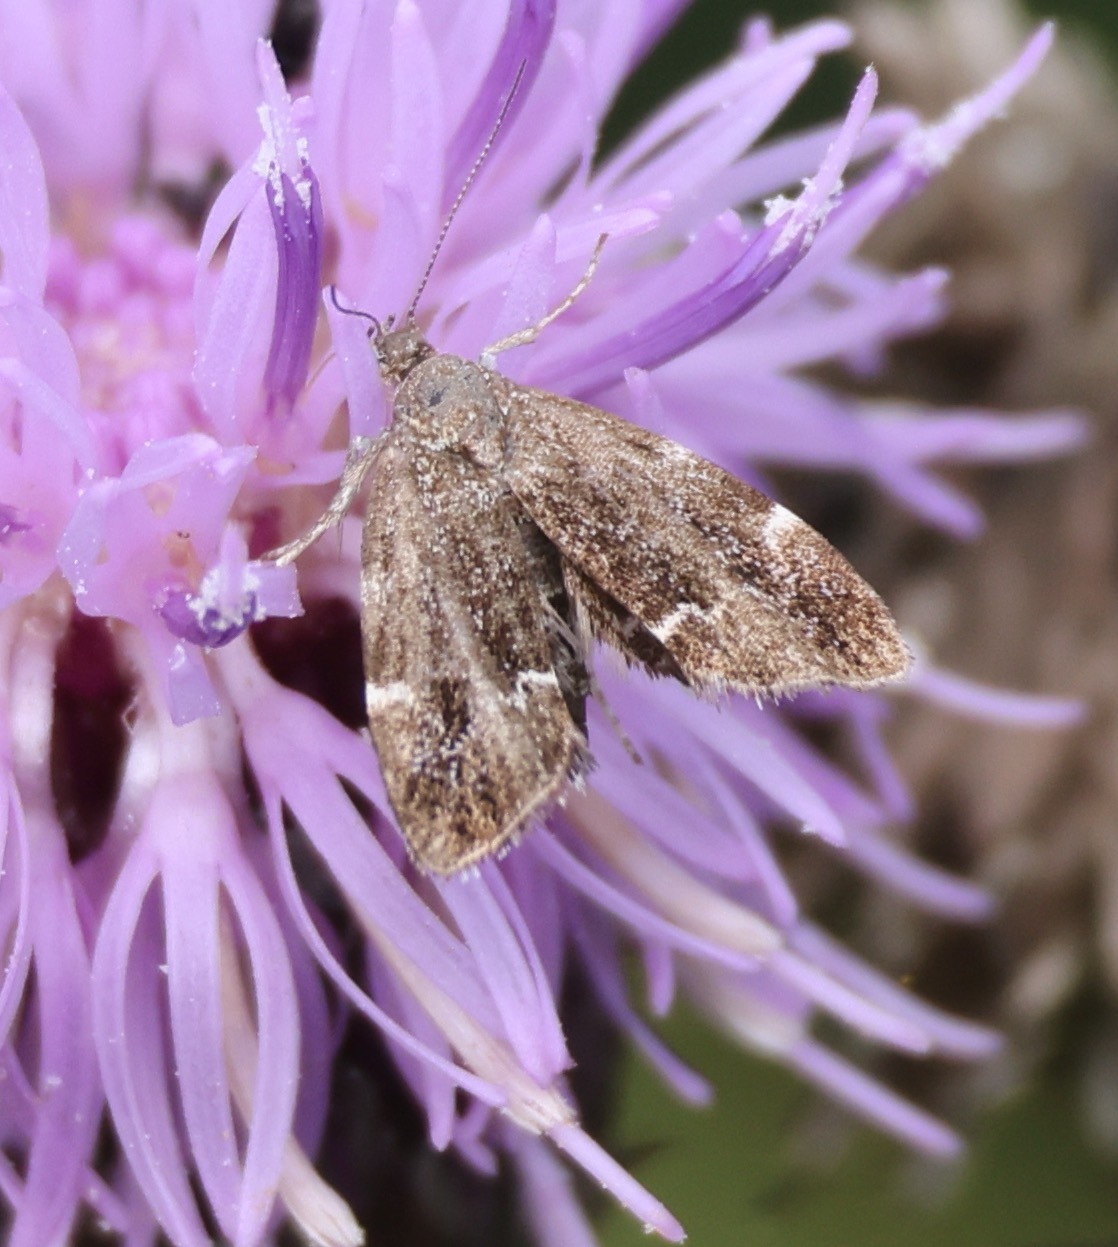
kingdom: Animalia
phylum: Arthropoda
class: Insecta
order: Lepidoptera
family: Choreutidae
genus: Anthophila
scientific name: Anthophila fabriciana
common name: Nettle-tap
